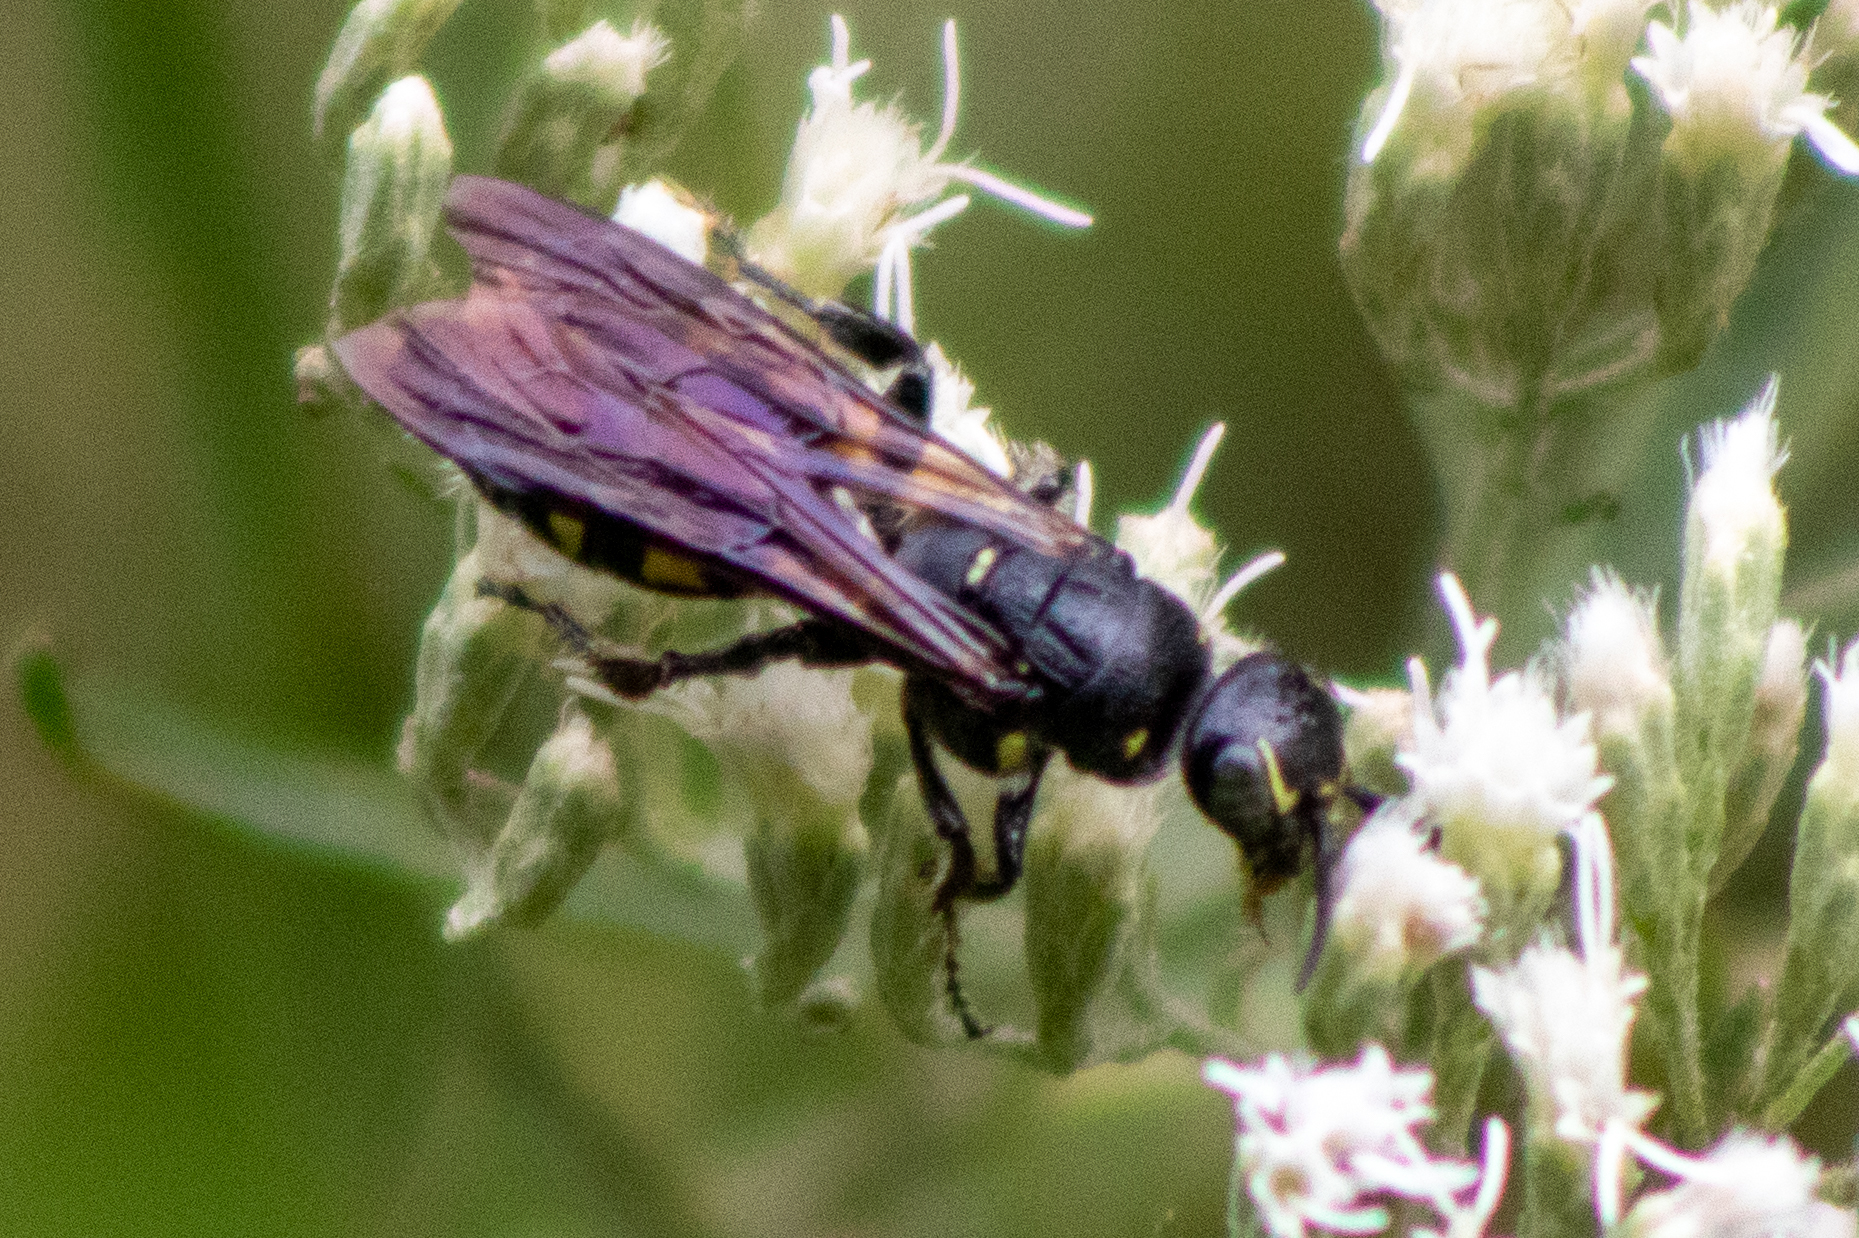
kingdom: Animalia
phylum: Arthropoda
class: Insecta
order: Hymenoptera
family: Tiphiidae
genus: Myzinum
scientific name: Myzinum obscurum
